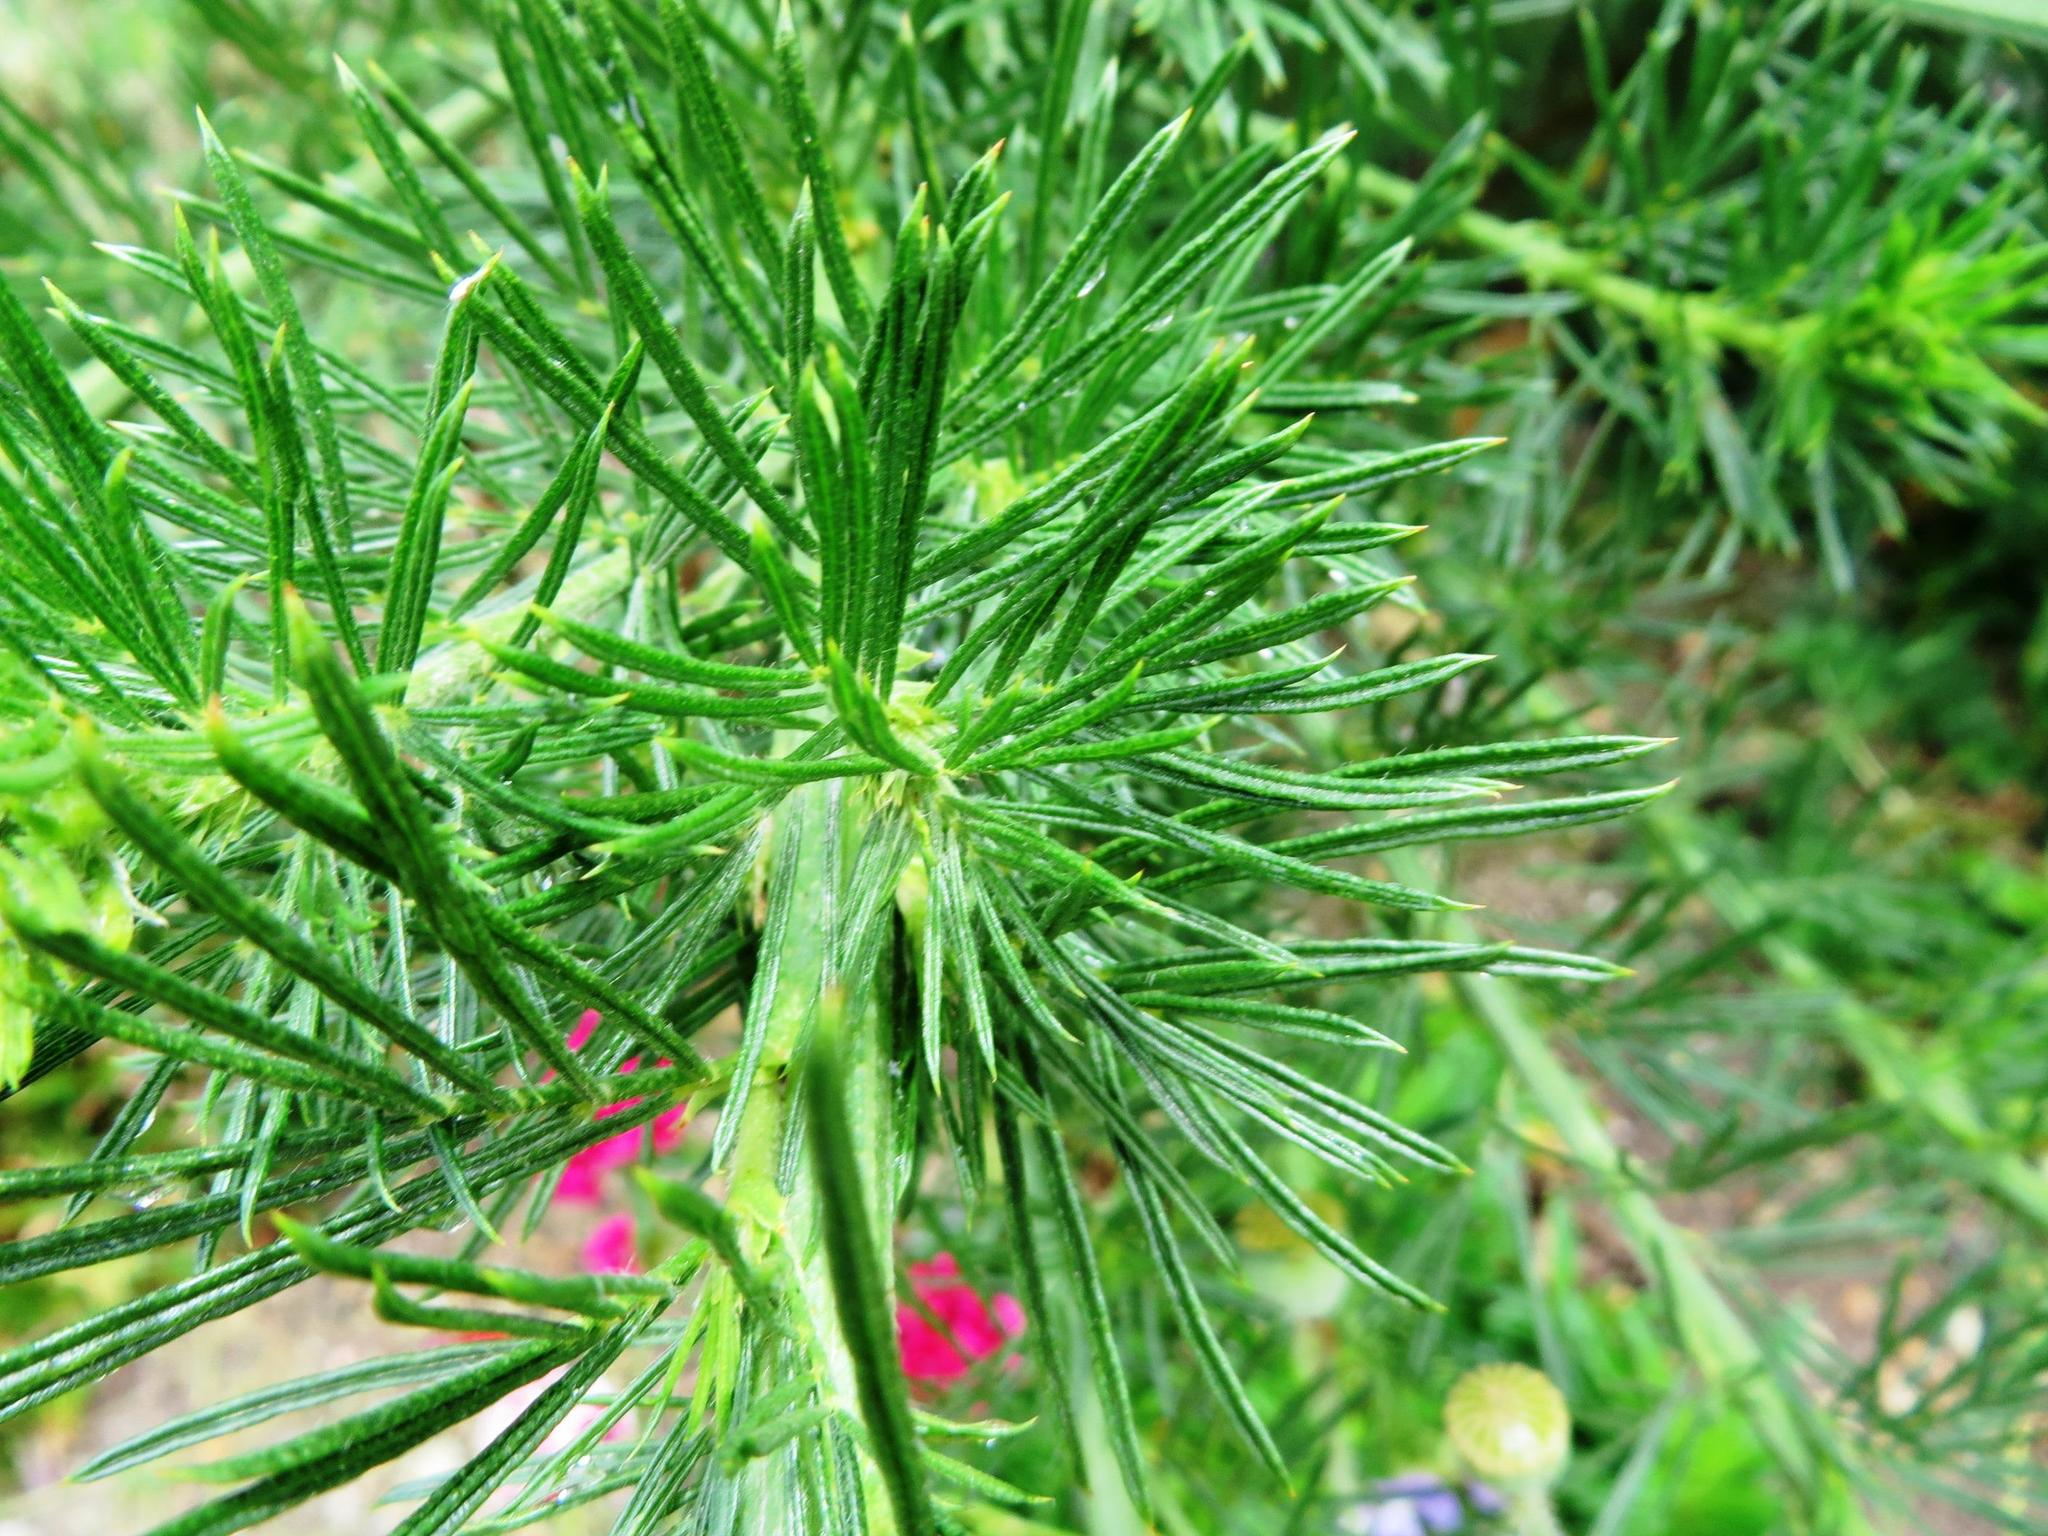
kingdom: Plantae
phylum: Tracheophyta
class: Magnoliopsida
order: Fabales
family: Fabaceae
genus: Psoralea
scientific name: Psoralea affinis
